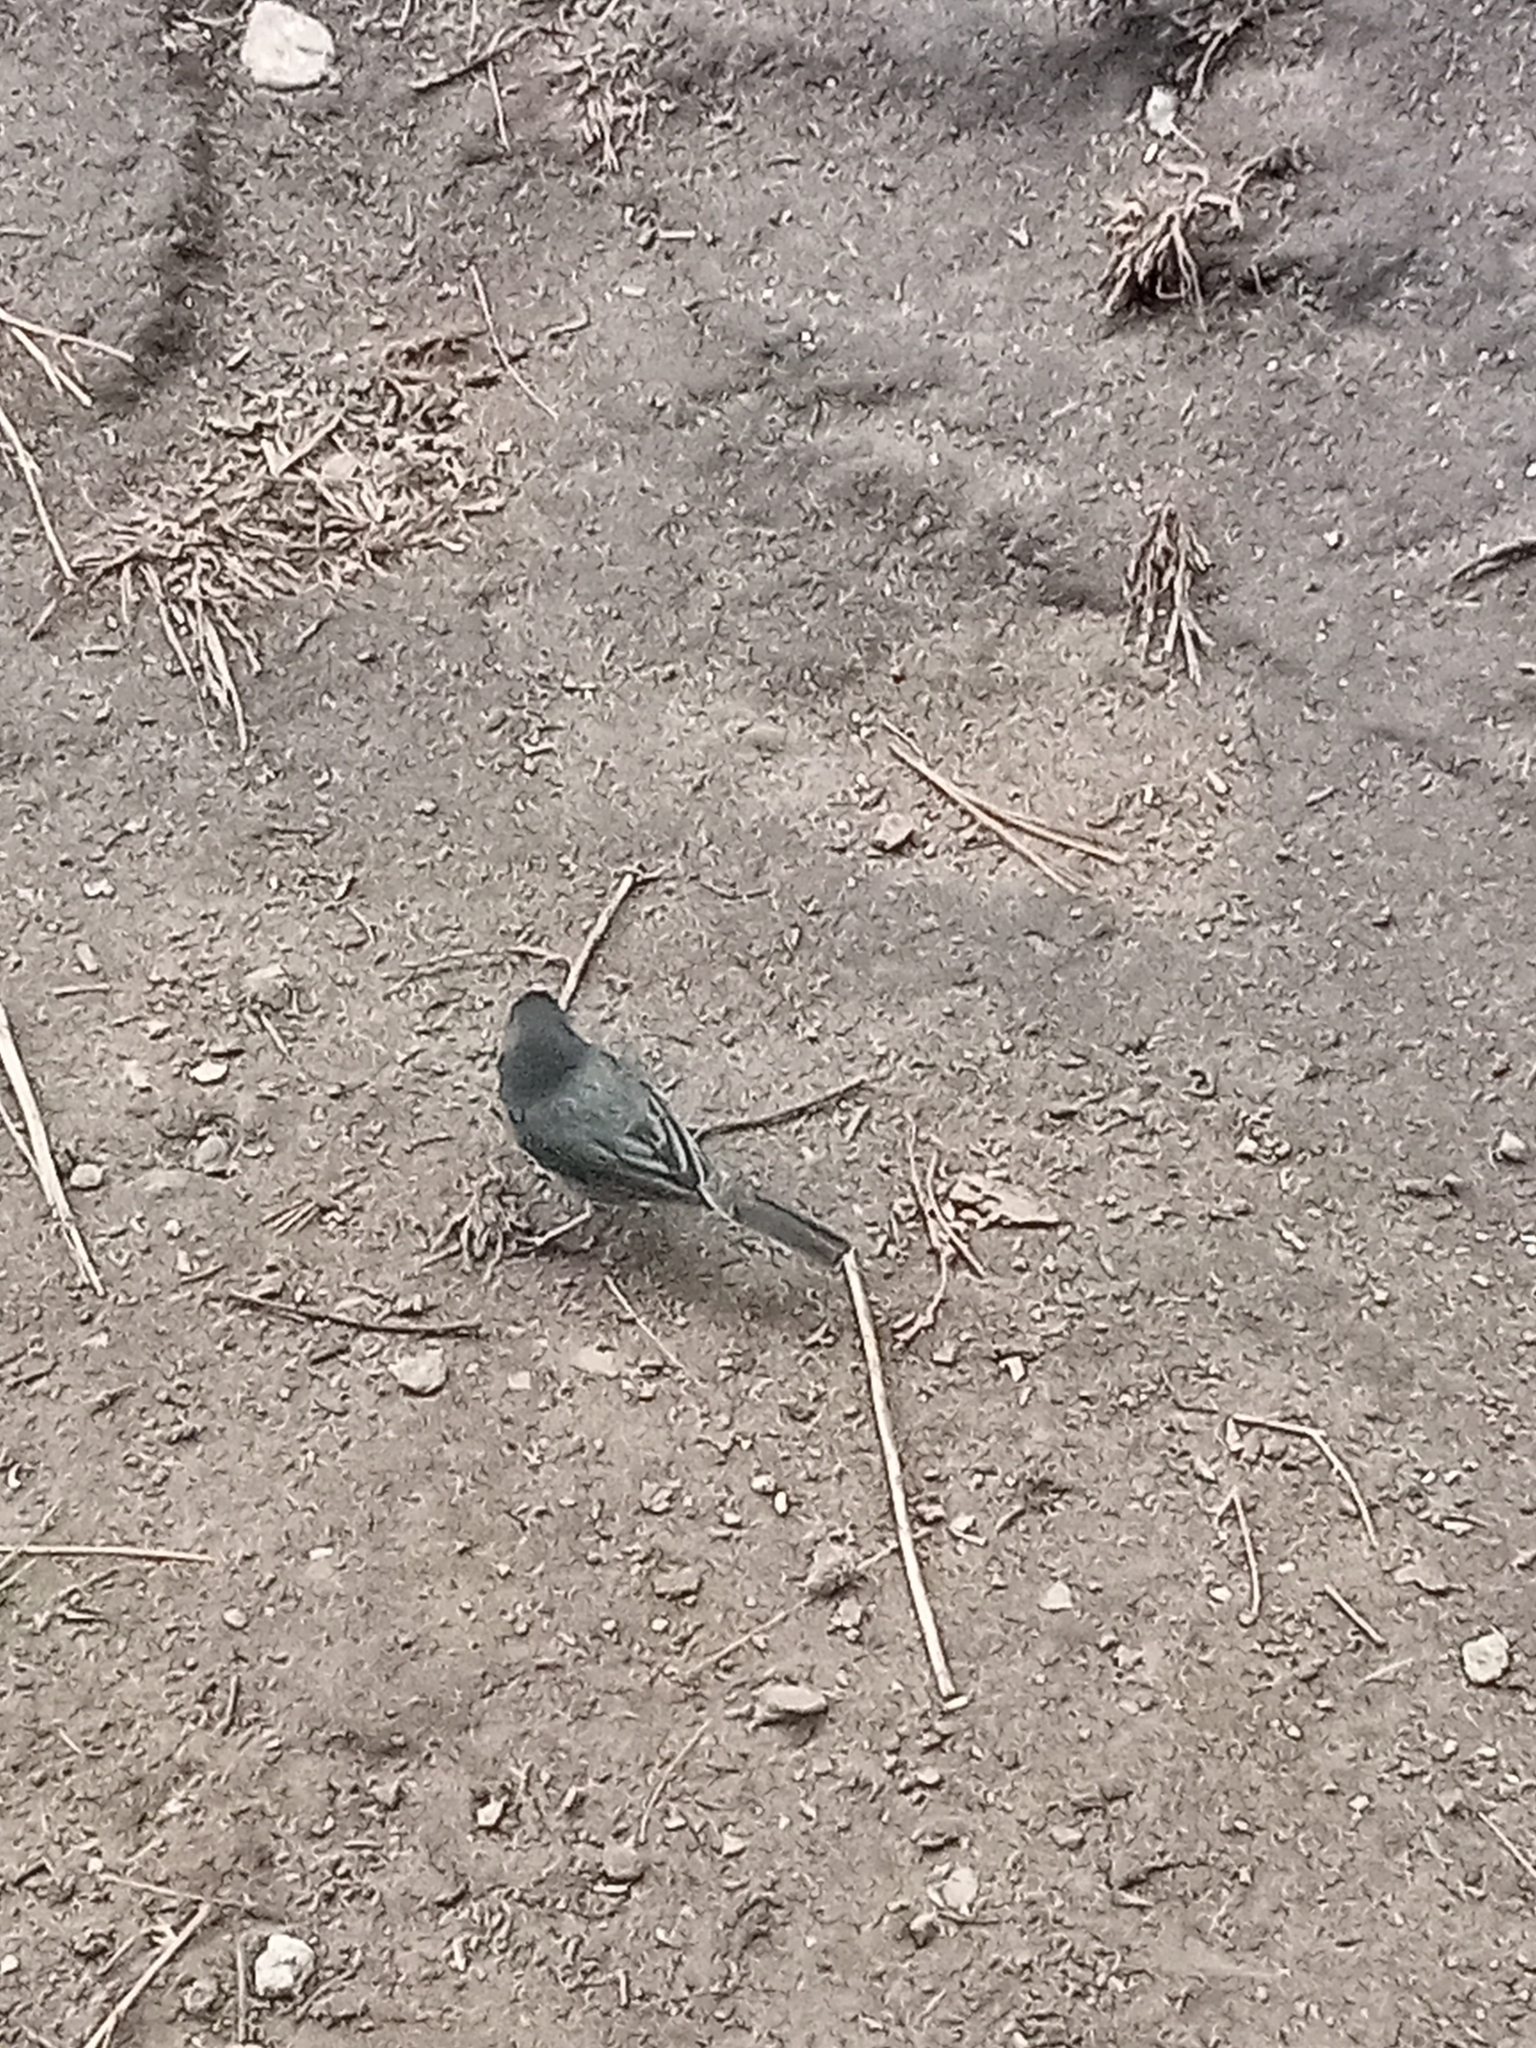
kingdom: Animalia
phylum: Chordata
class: Aves
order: Passeriformes
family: Passerellidae
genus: Junco
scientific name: Junco hyemalis
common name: Dark-eyed junco
